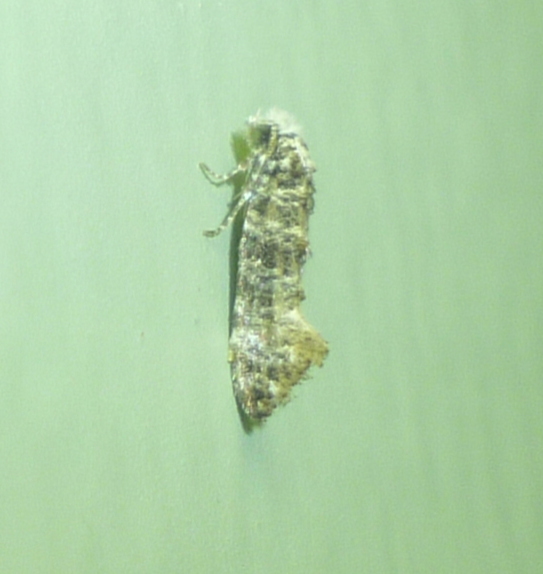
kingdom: Animalia
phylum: Arthropoda
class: Insecta
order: Lepidoptera
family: Tineidae
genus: Xylesthia
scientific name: Xylesthia pruniramiella
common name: Clemens' bark moth
